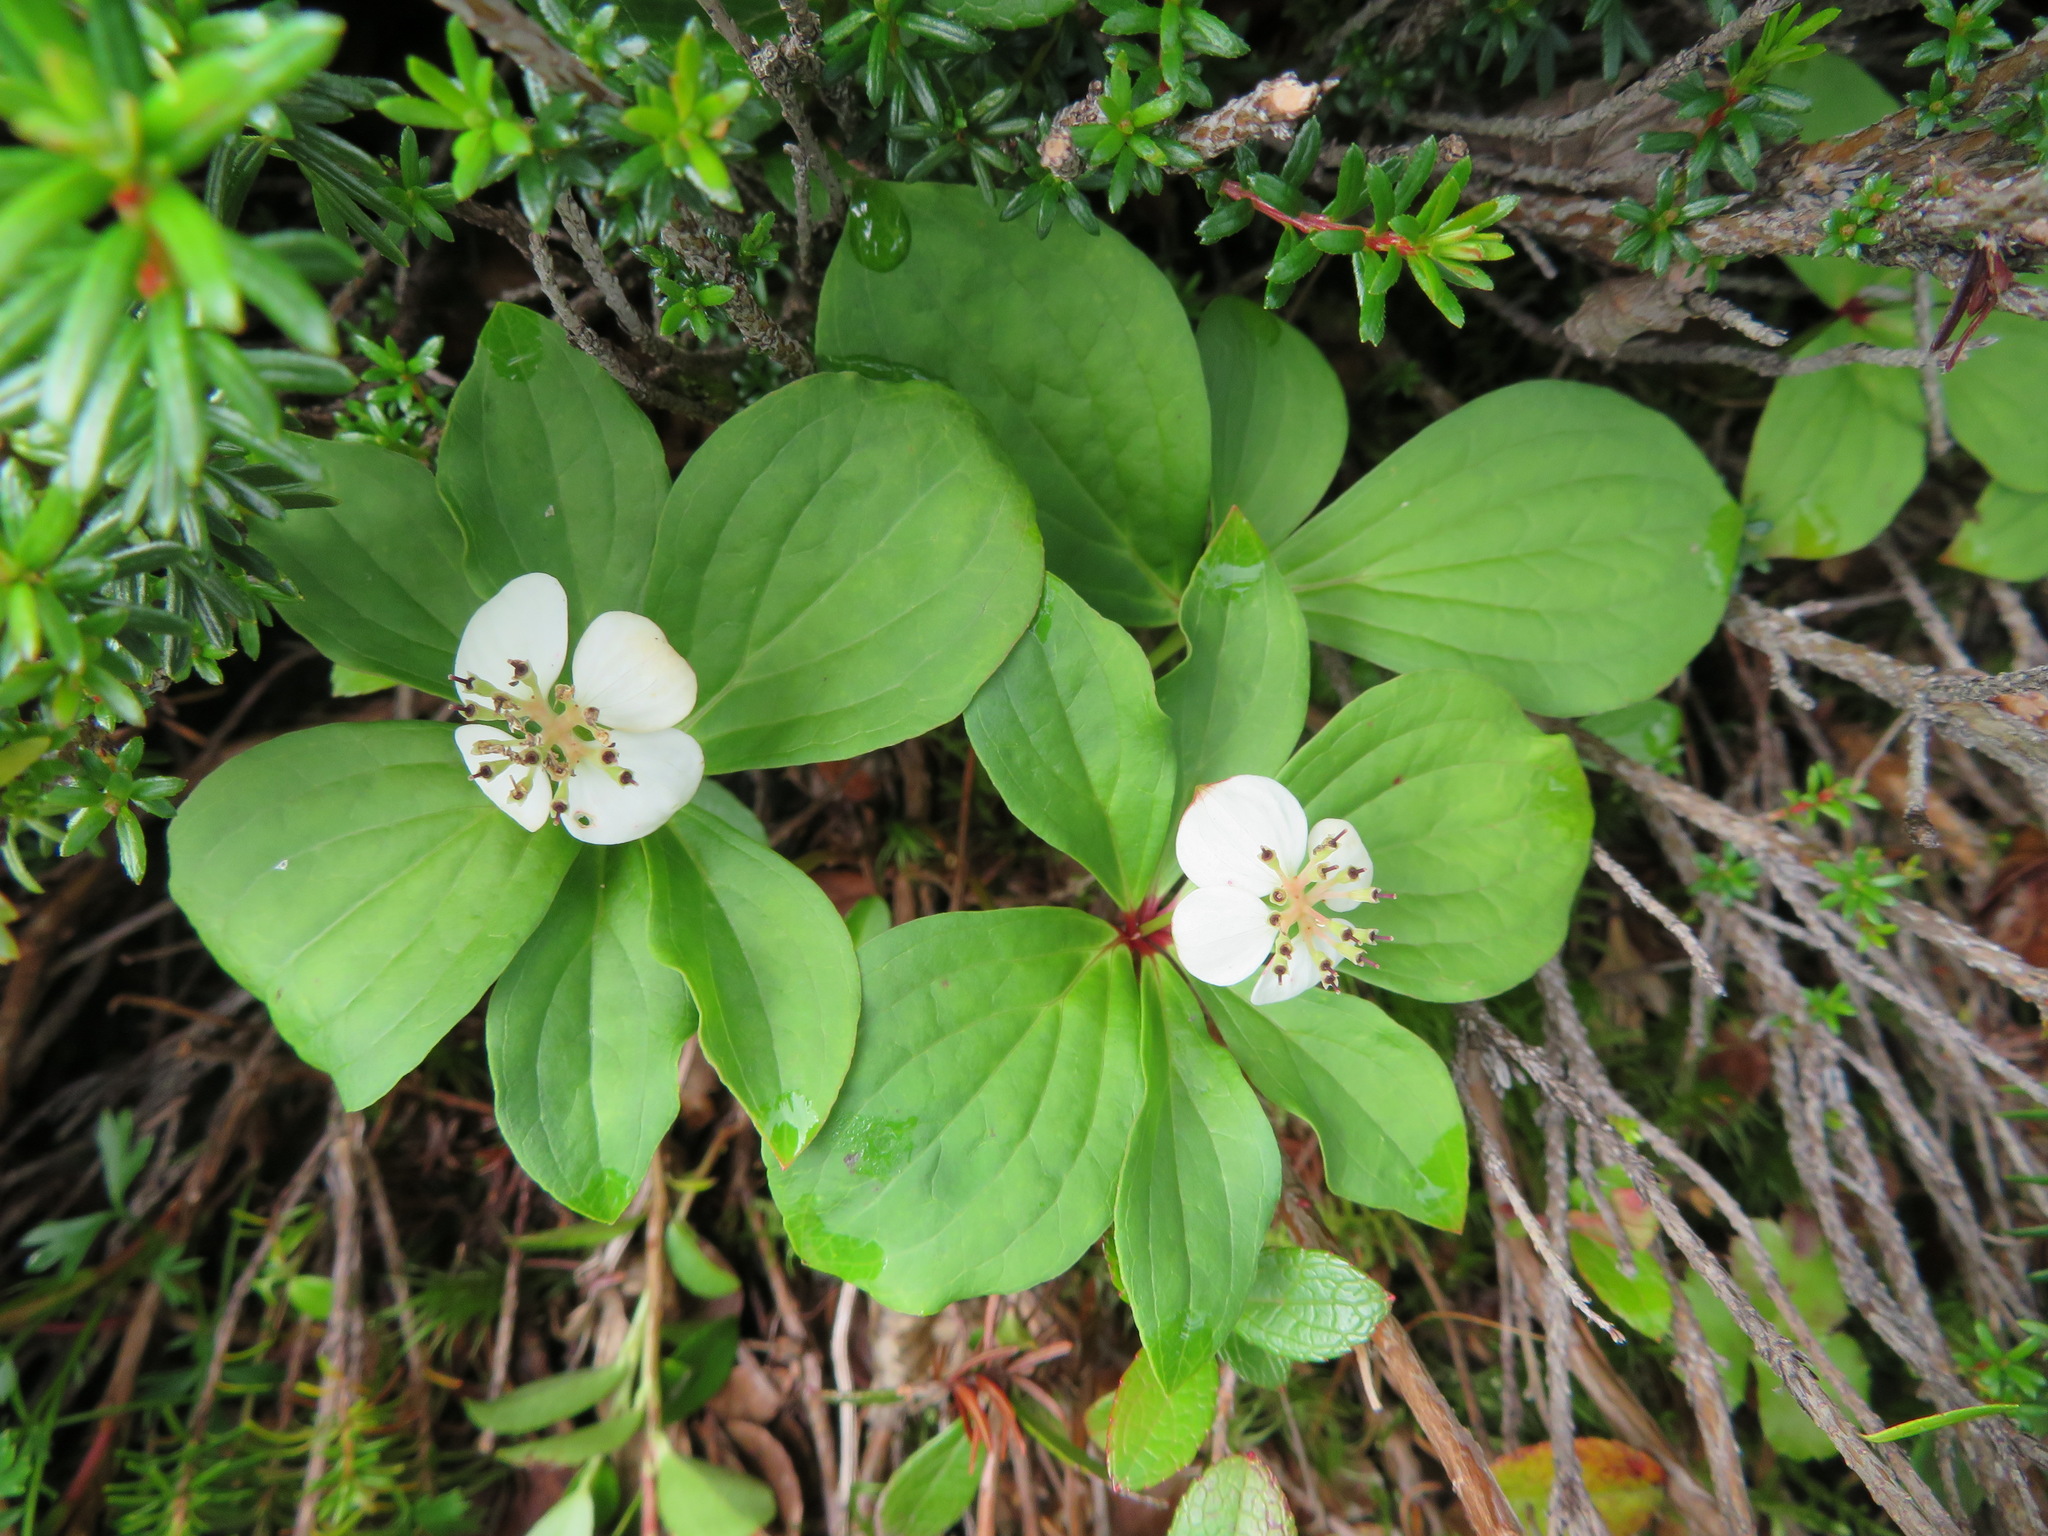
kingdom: Plantae
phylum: Tracheophyta
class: Magnoliopsida
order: Cornales
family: Cornaceae
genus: Cornus
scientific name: Cornus canadensis
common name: Creeping dogwood
